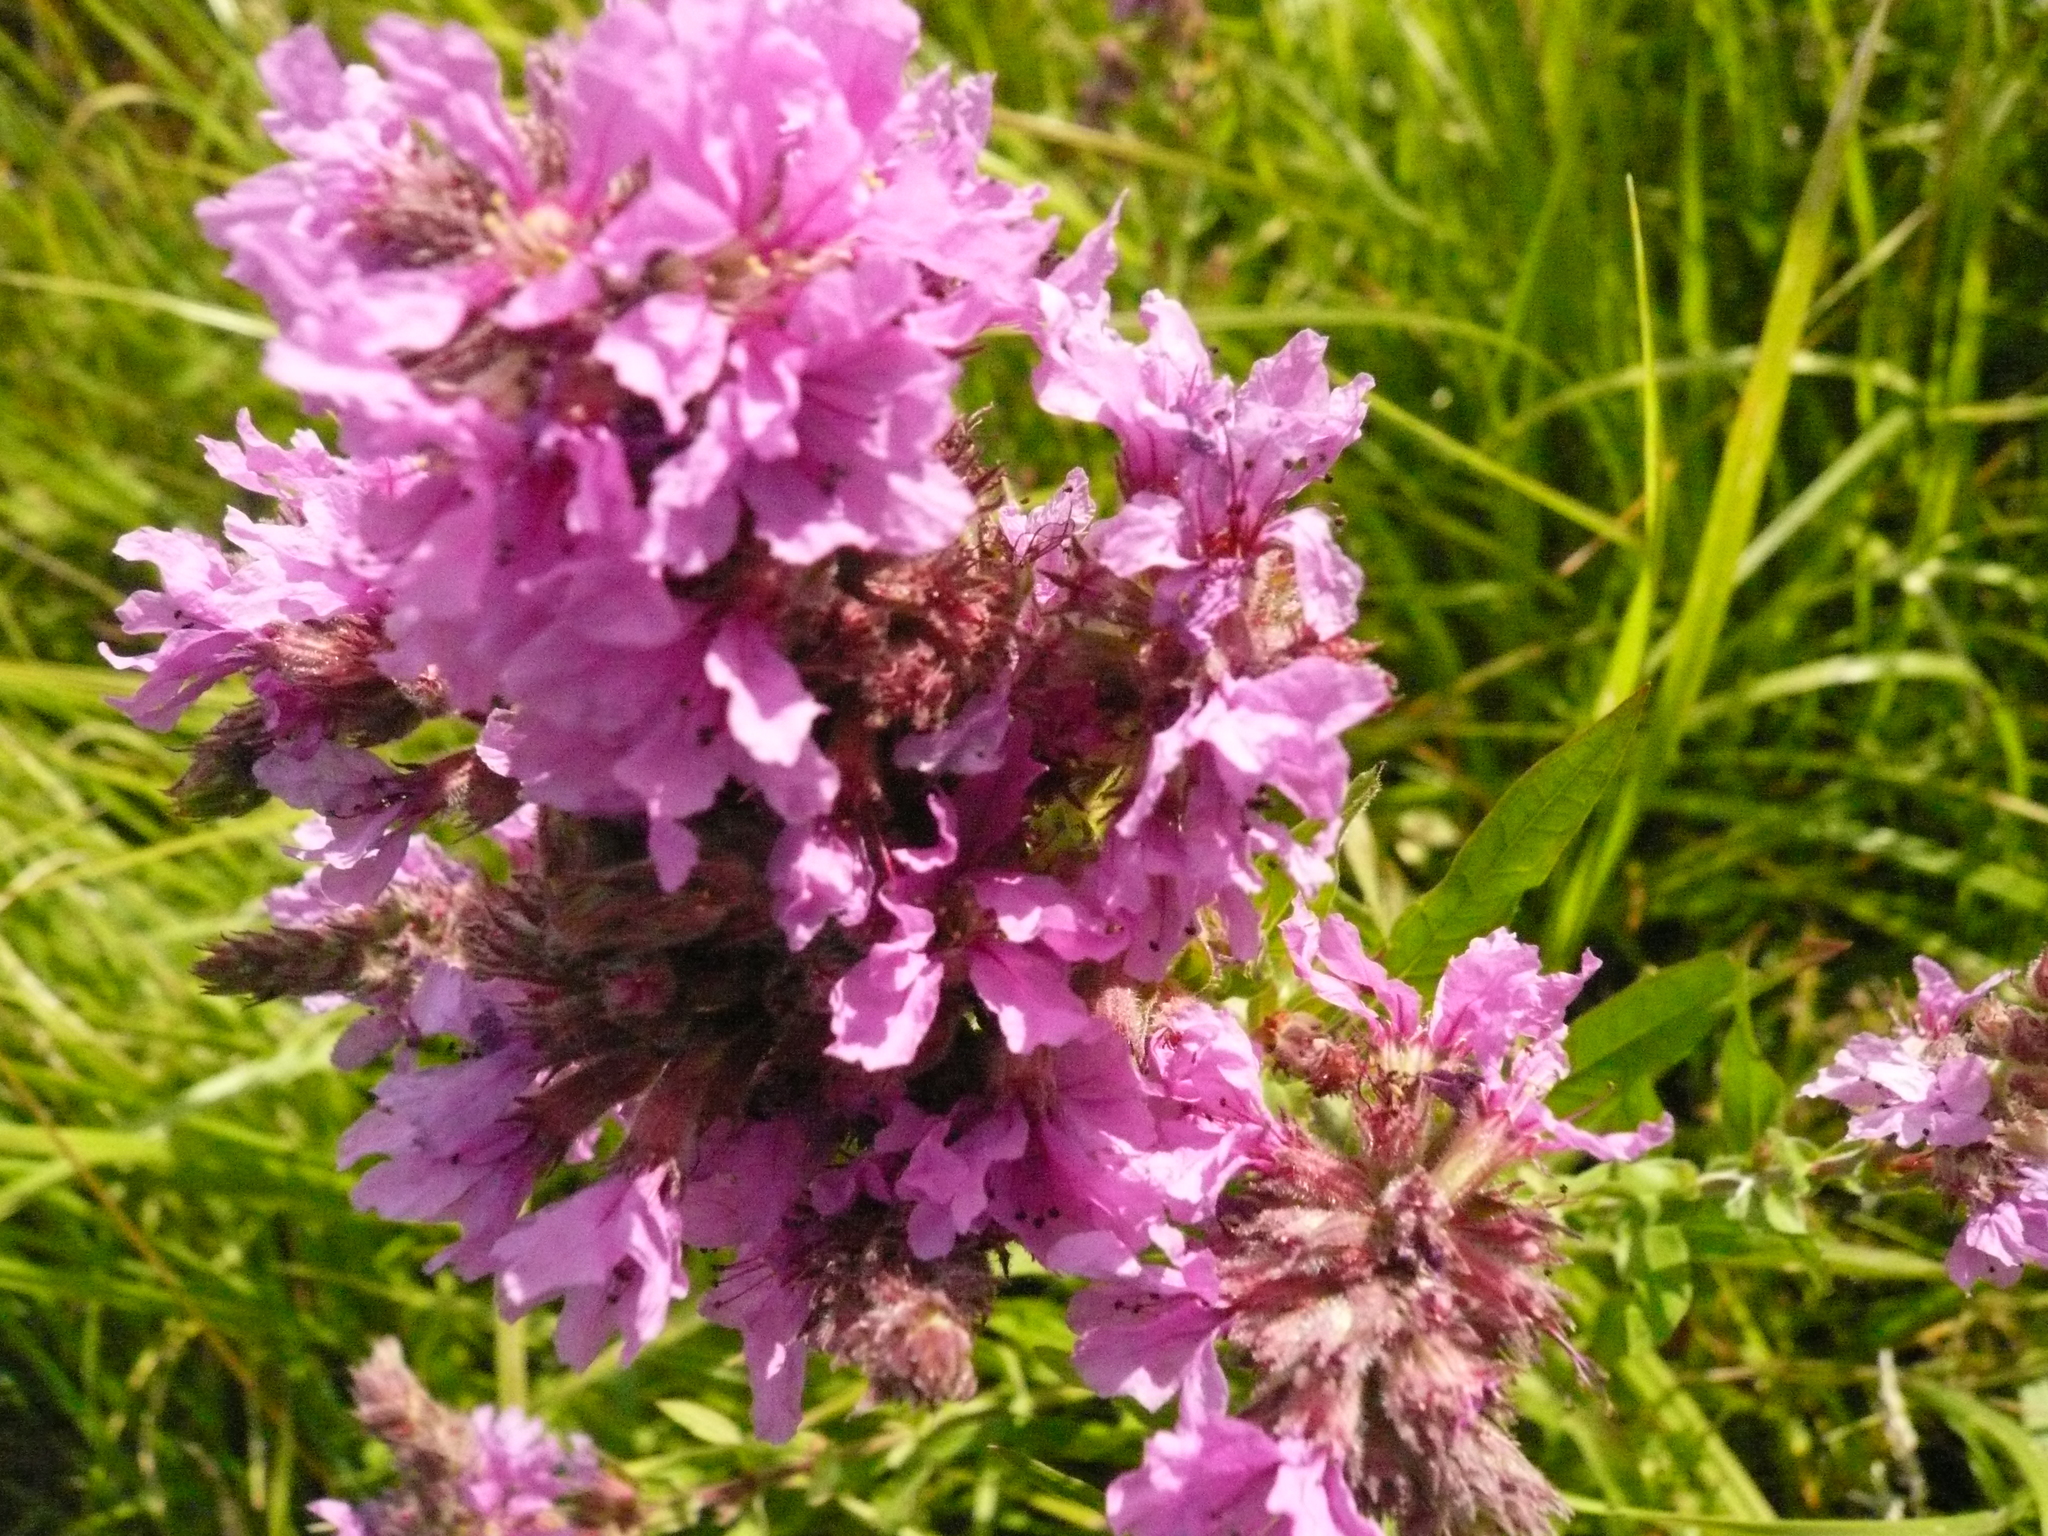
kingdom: Plantae
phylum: Tracheophyta
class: Magnoliopsida
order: Myrtales
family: Lythraceae
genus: Lythrum
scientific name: Lythrum salicaria
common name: Purple loosestrife
